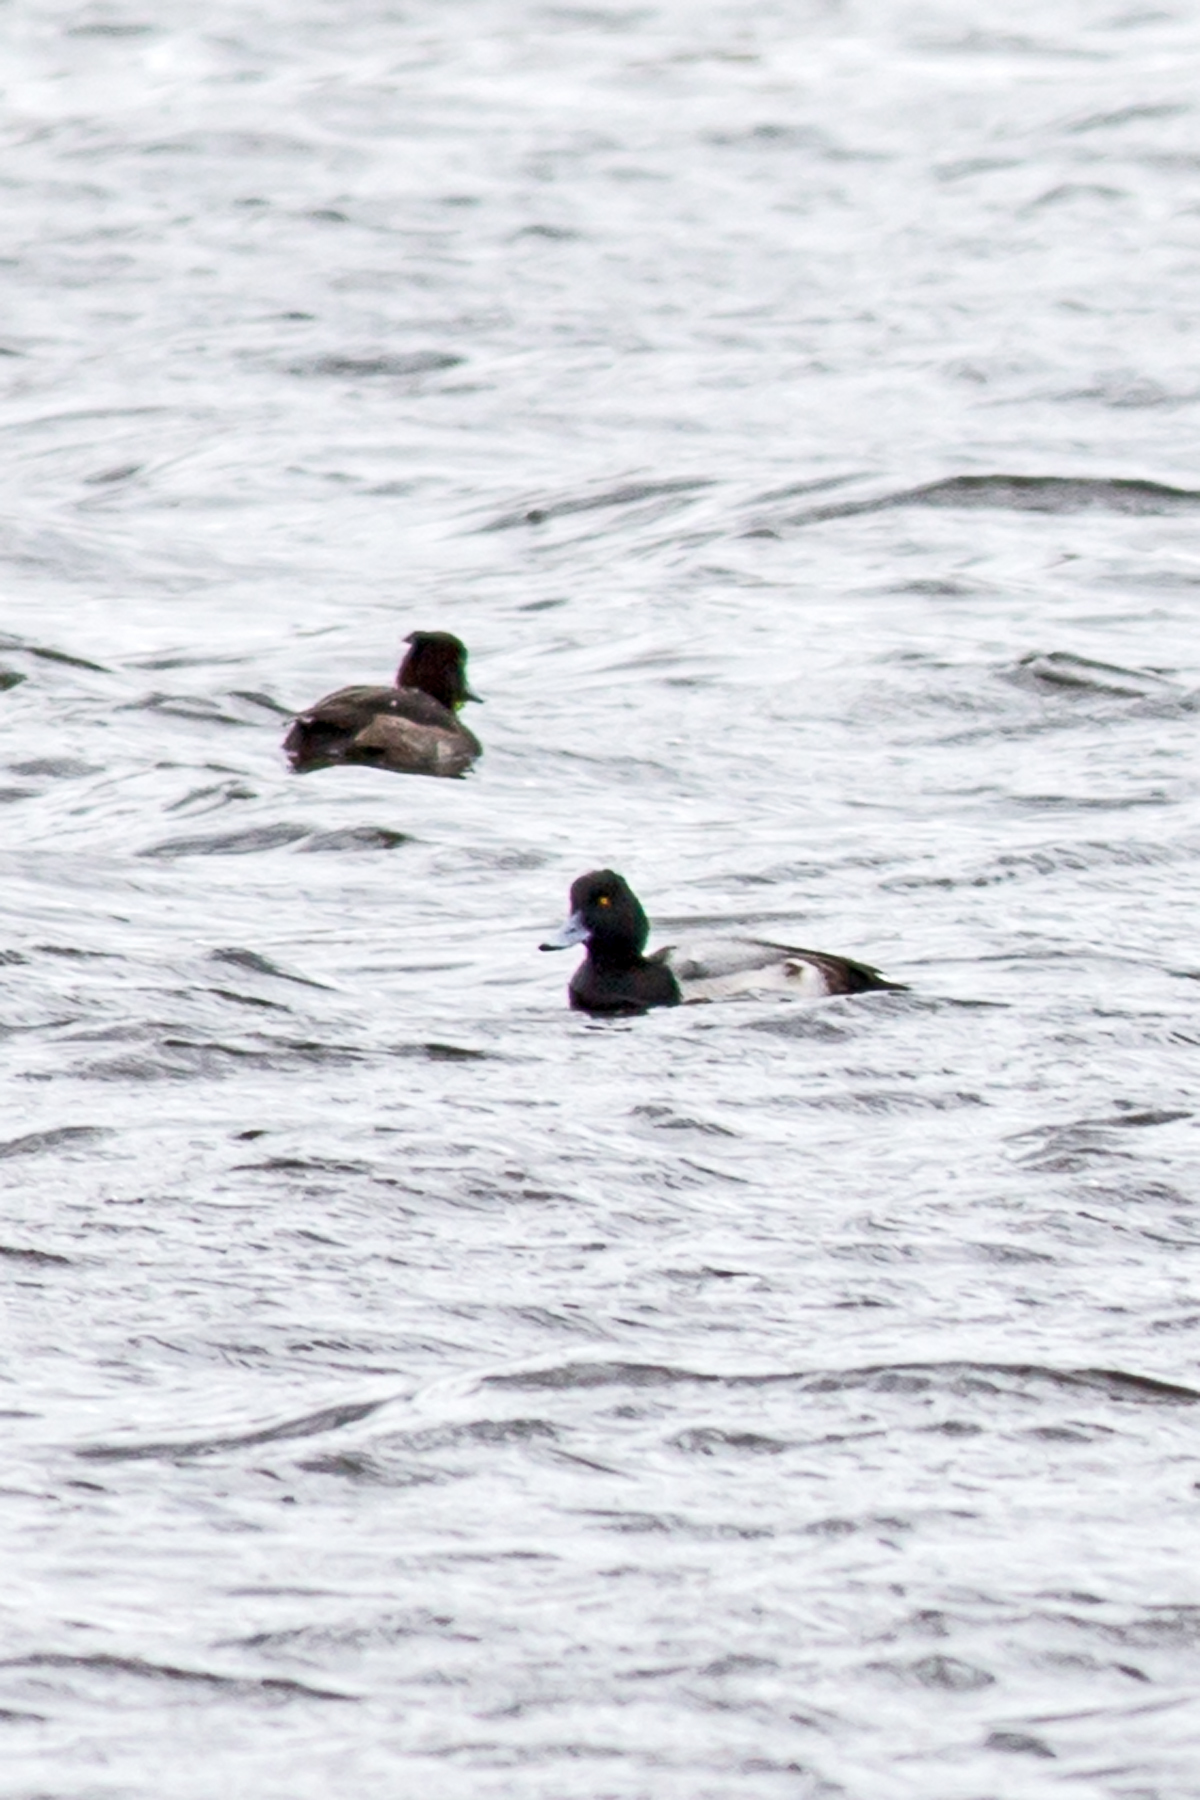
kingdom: Animalia
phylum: Chordata
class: Aves
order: Anseriformes
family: Anatidae
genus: Aythya
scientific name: Aythya marila
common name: Greater scaup
